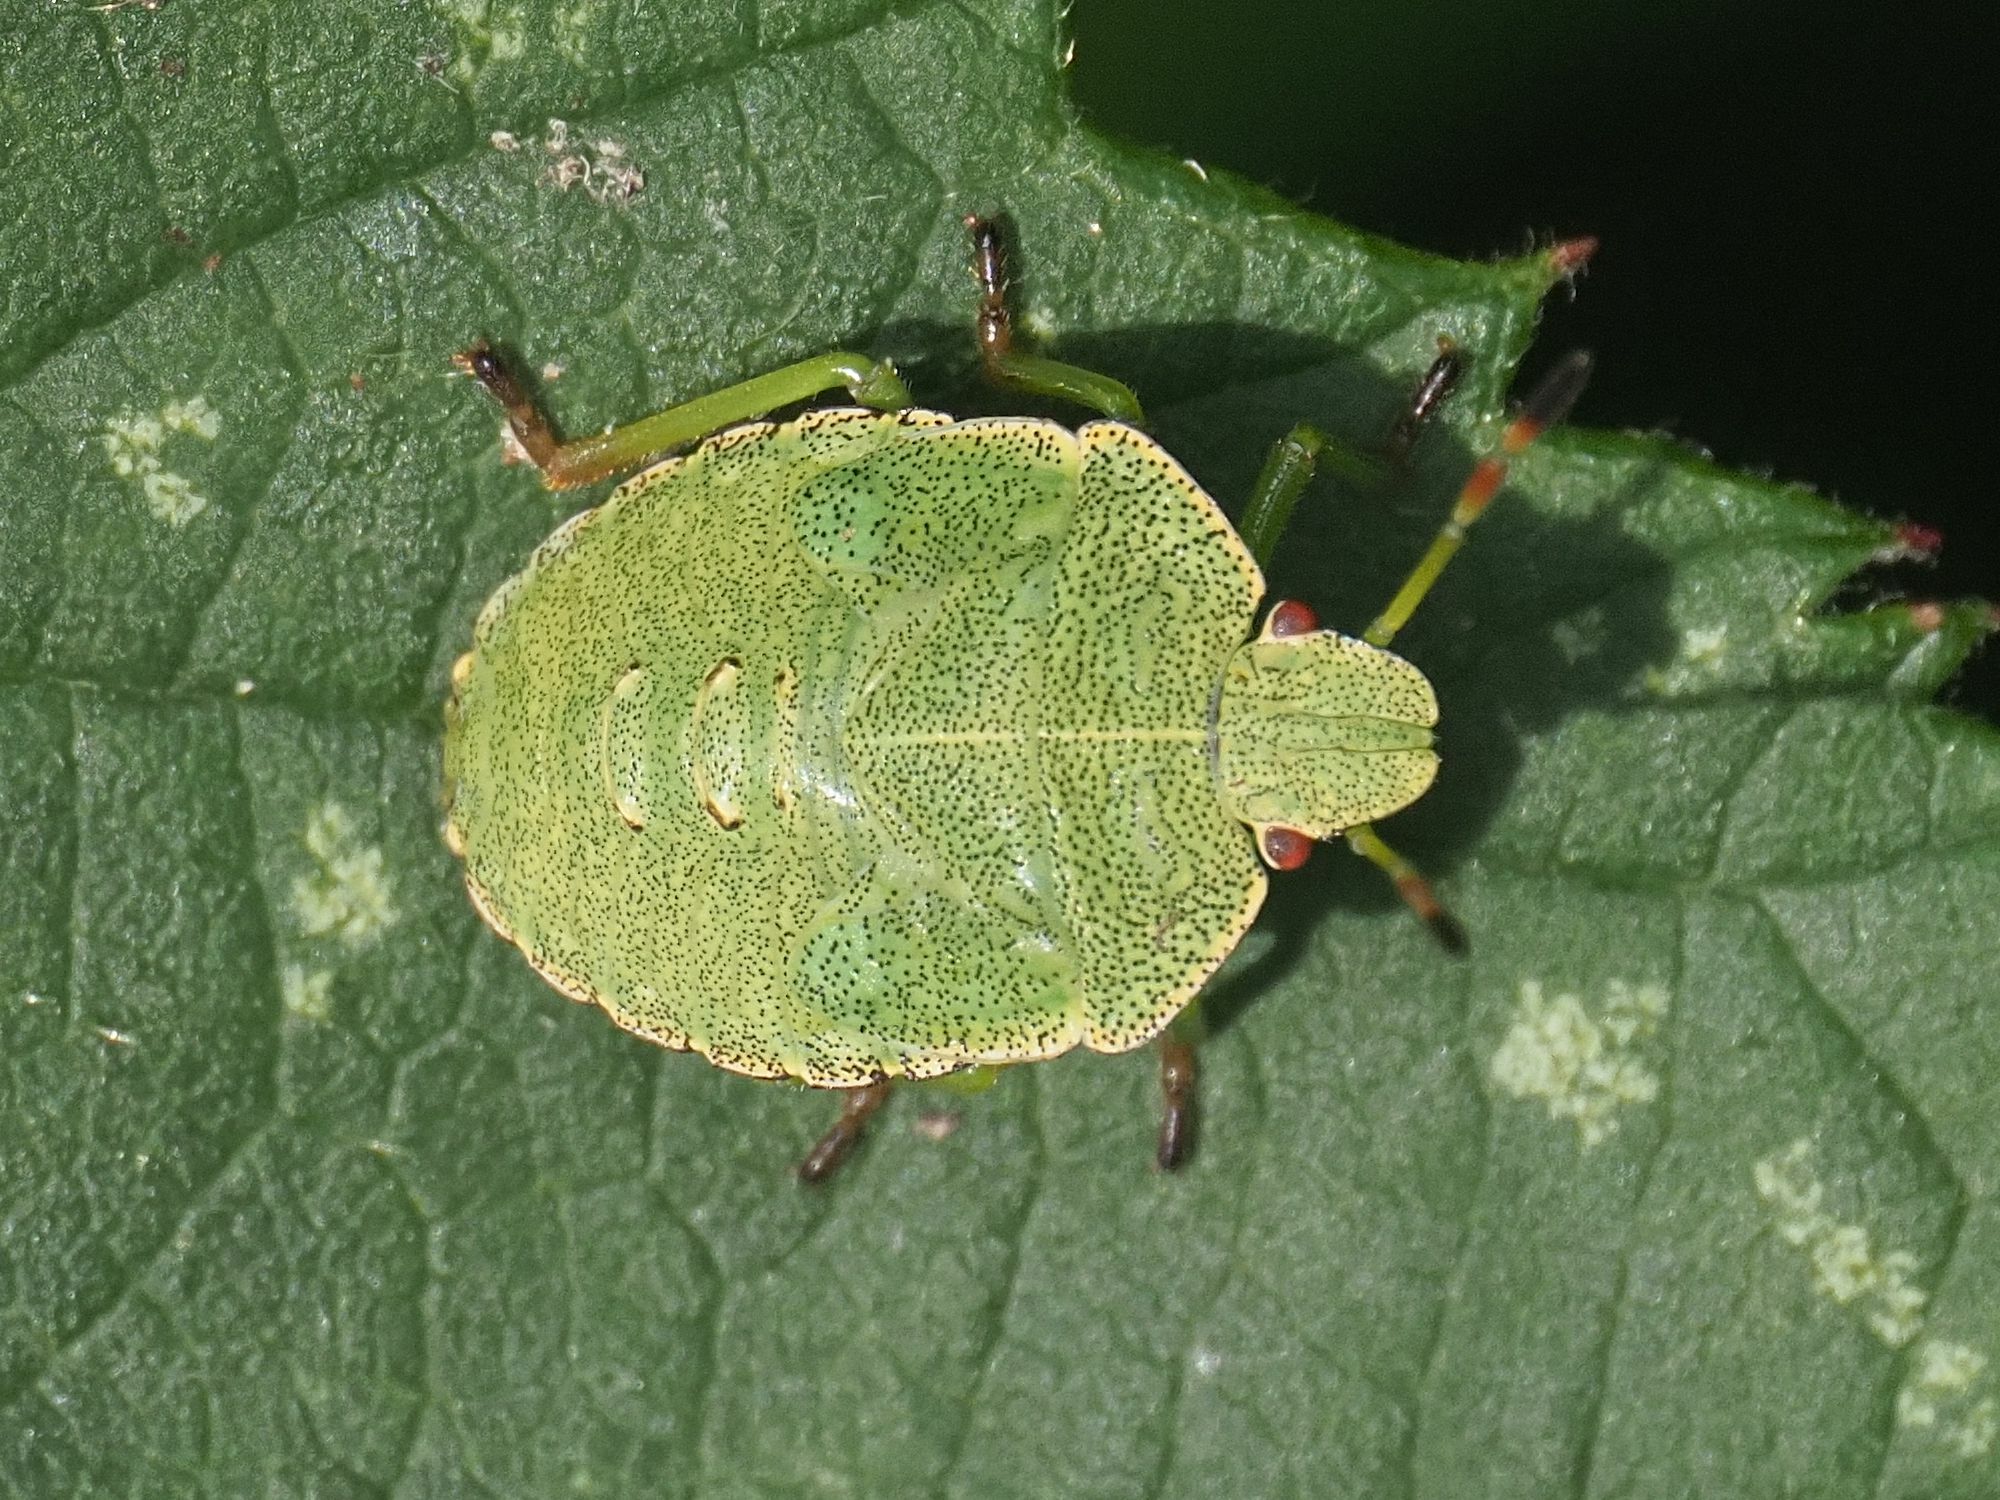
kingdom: Animalia
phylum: Arthropoda
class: Insecta
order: Hemiptera
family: Pentatomidae
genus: Palomena
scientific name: Palomena prasina
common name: Green shieldbug
